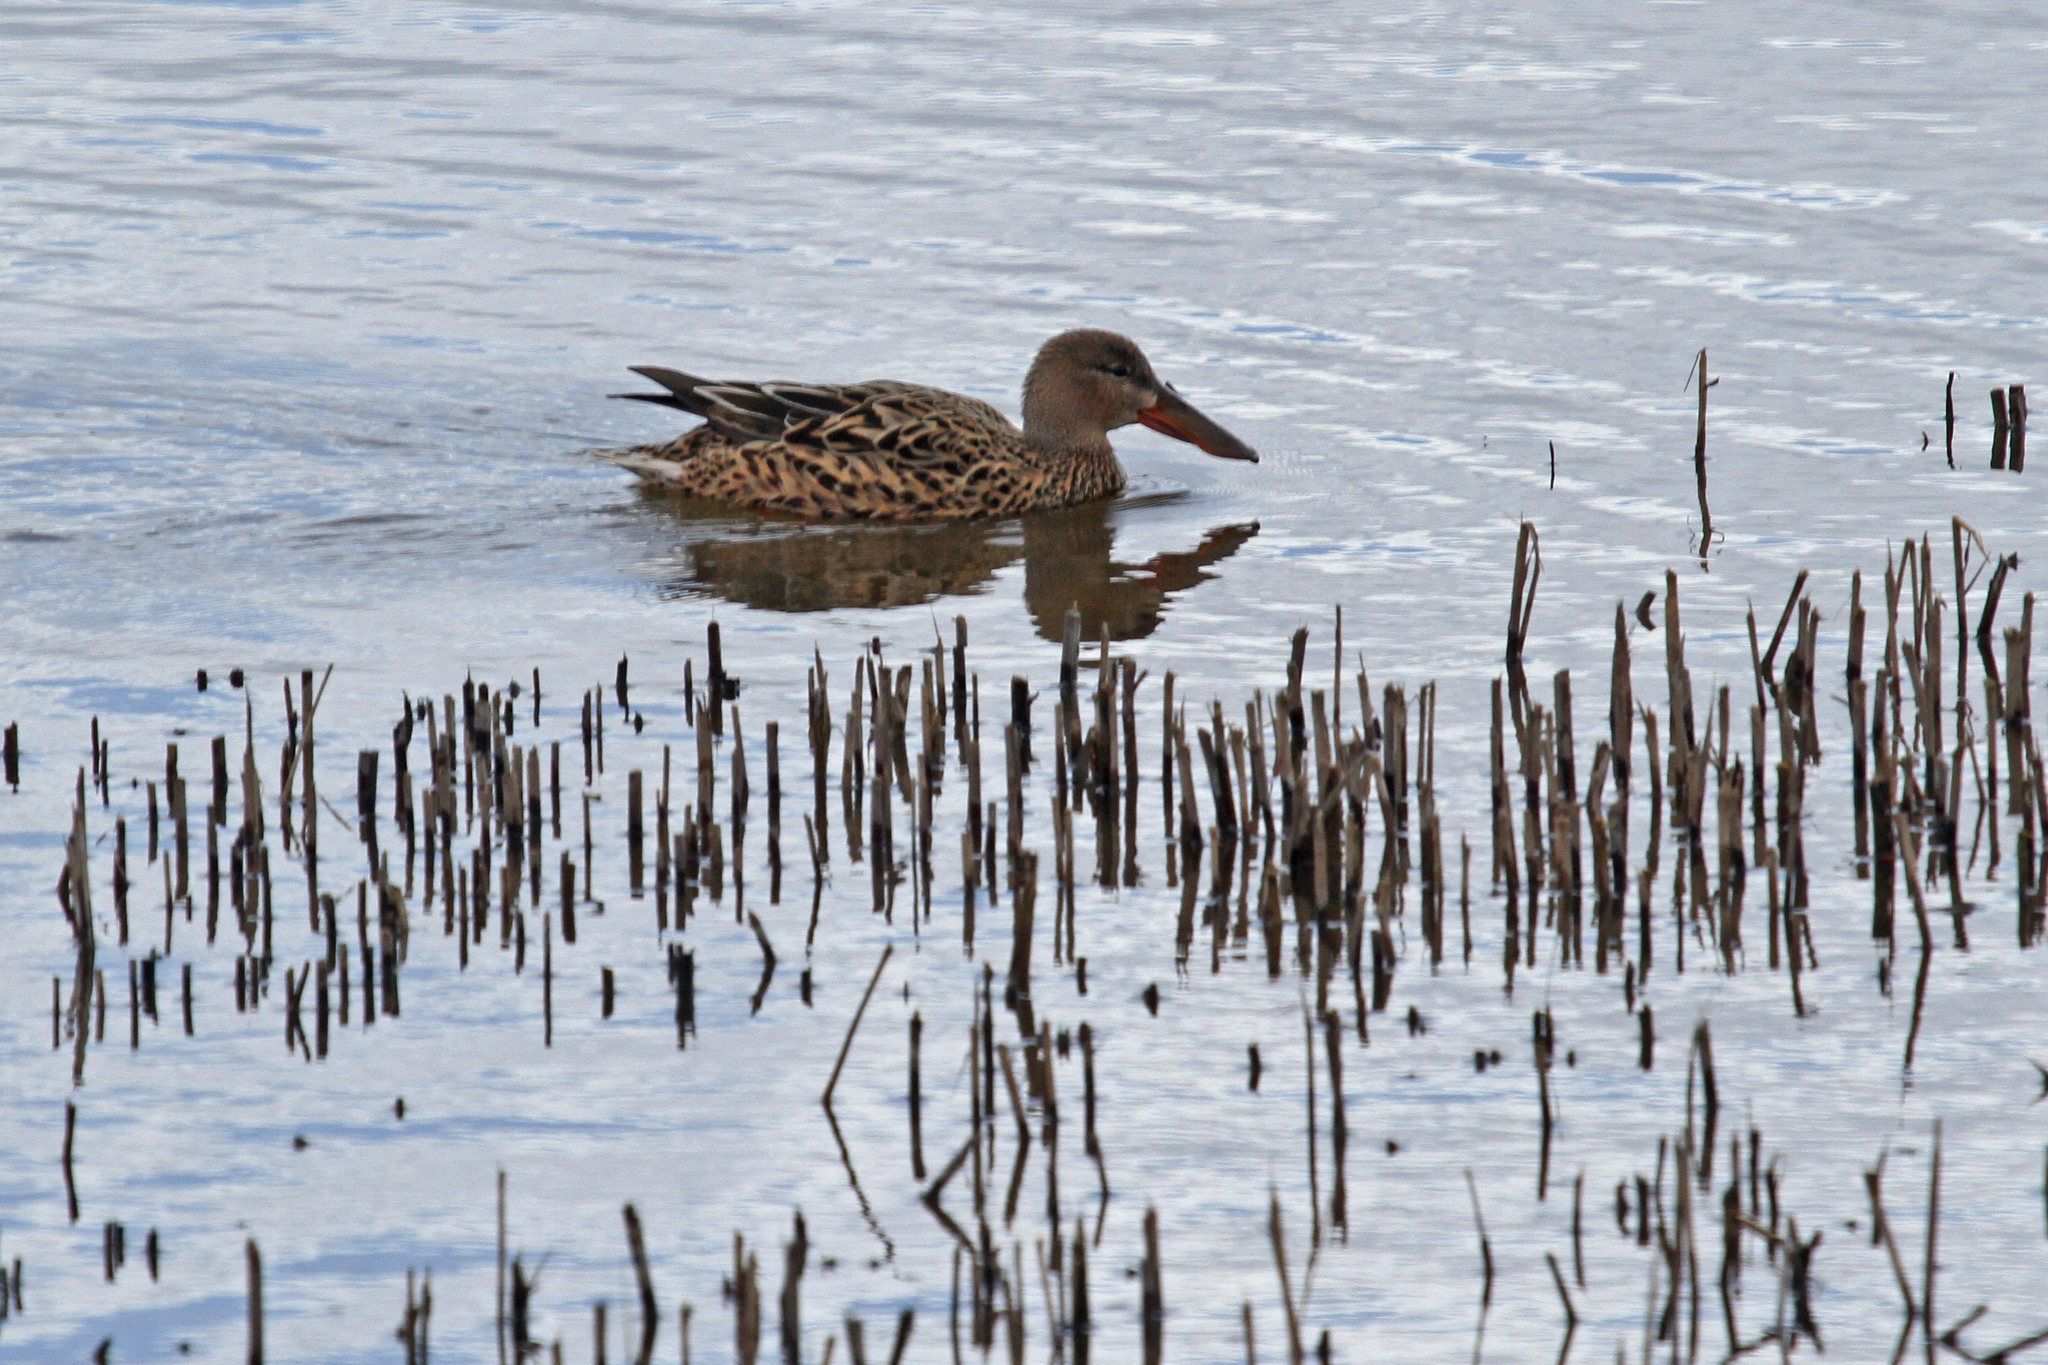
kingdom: Animalia
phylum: Chordata
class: Aves
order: Anseriformes
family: Anatidae
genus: Spatula
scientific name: Spatula clypeata
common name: Northern shoveler
